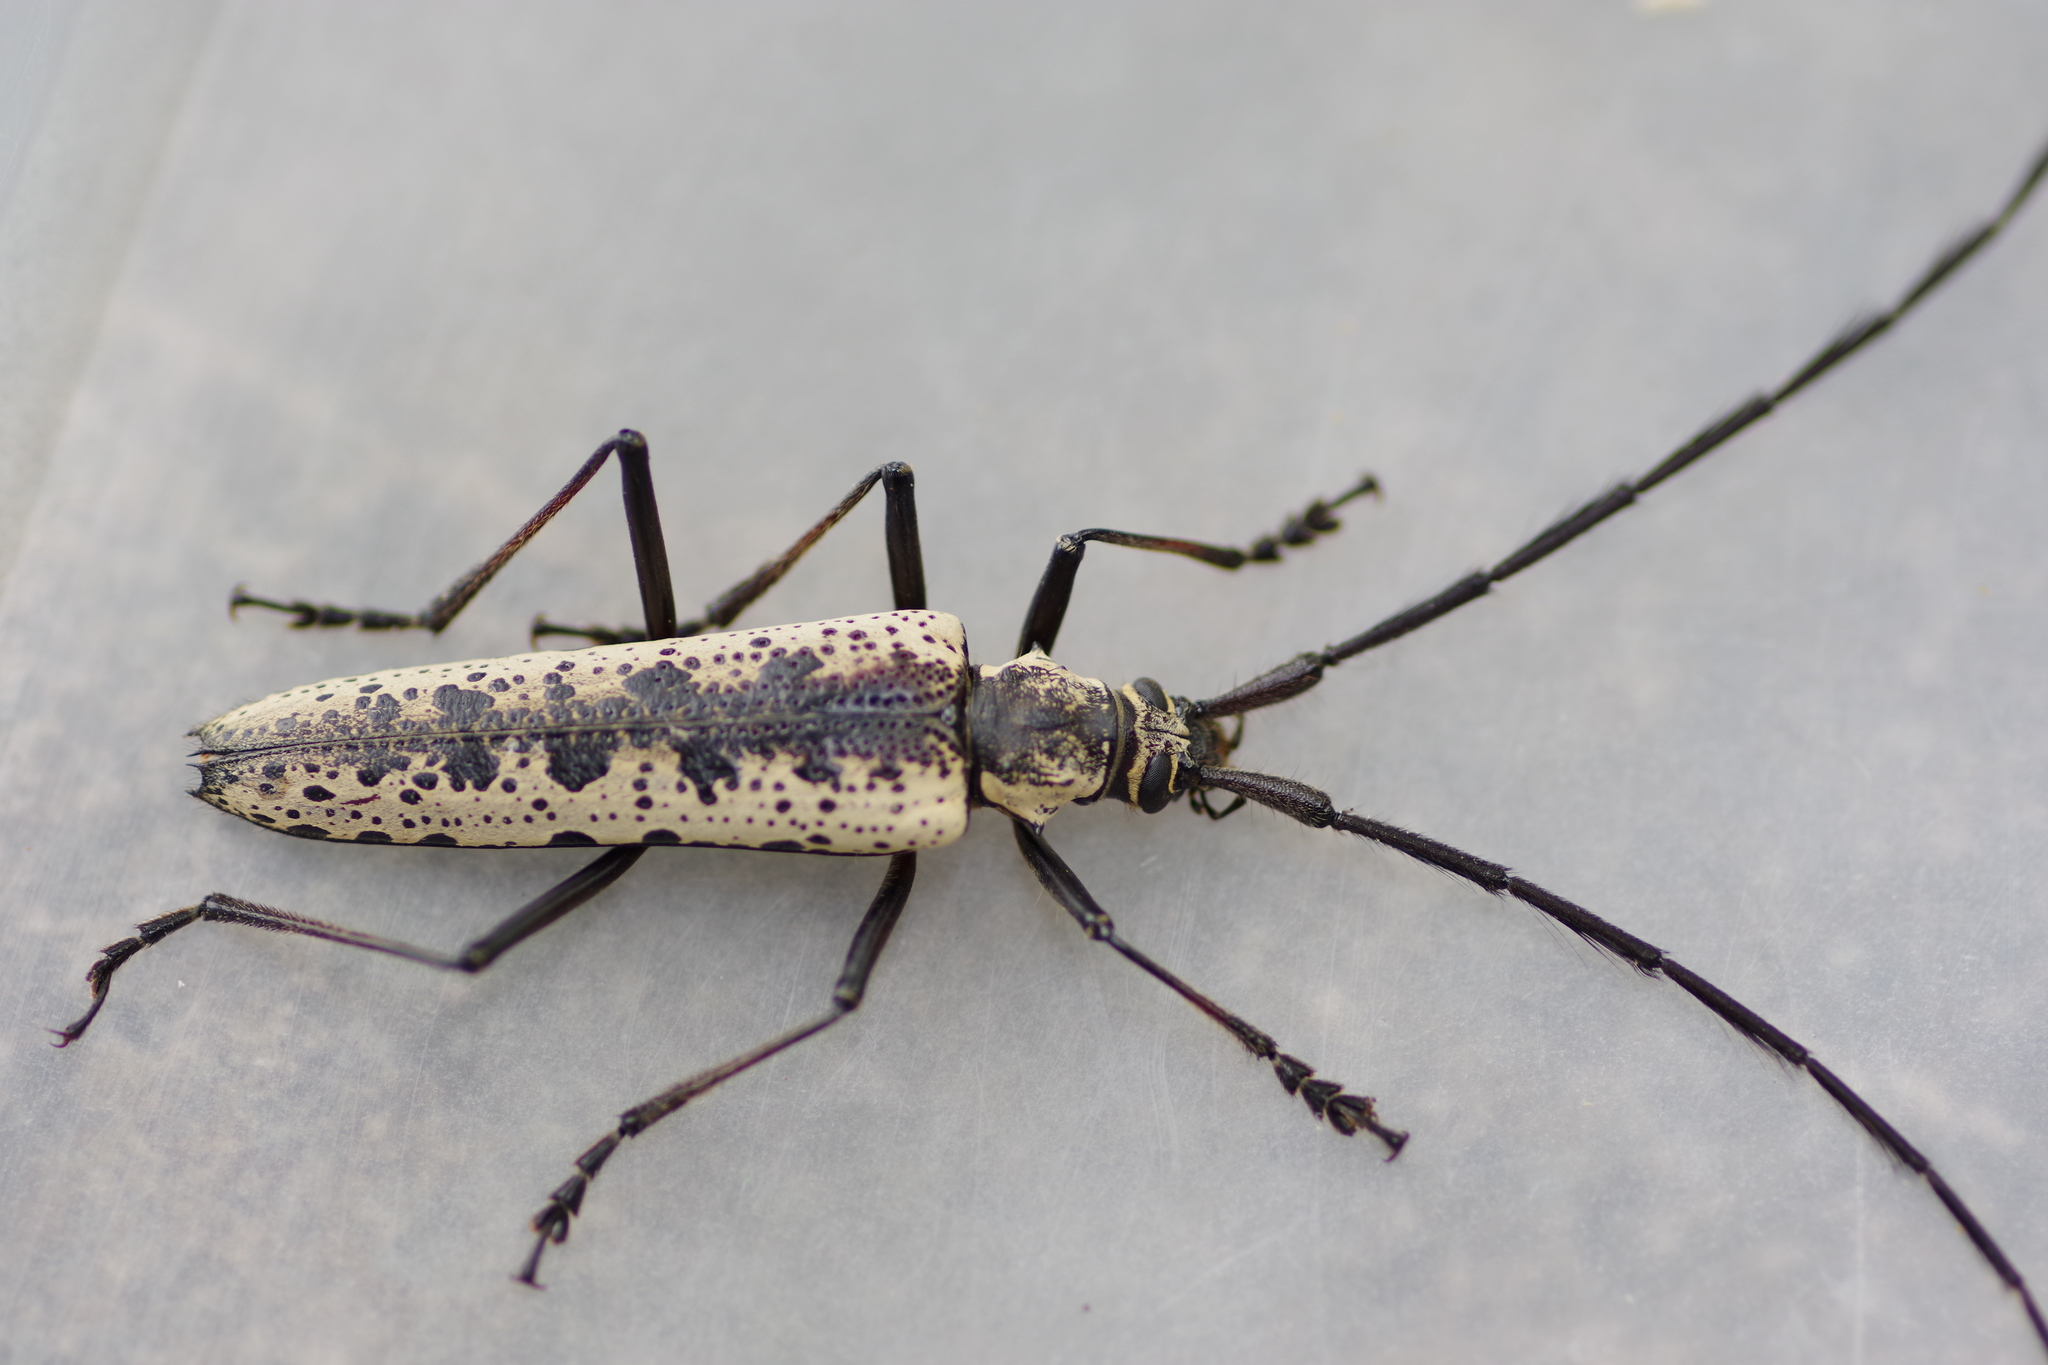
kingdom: Animalia
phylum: Arthropoda
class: Insecta
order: Coleoptera
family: Cerambycidae
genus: Disteniazteca
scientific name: Disteniazteca pilati
